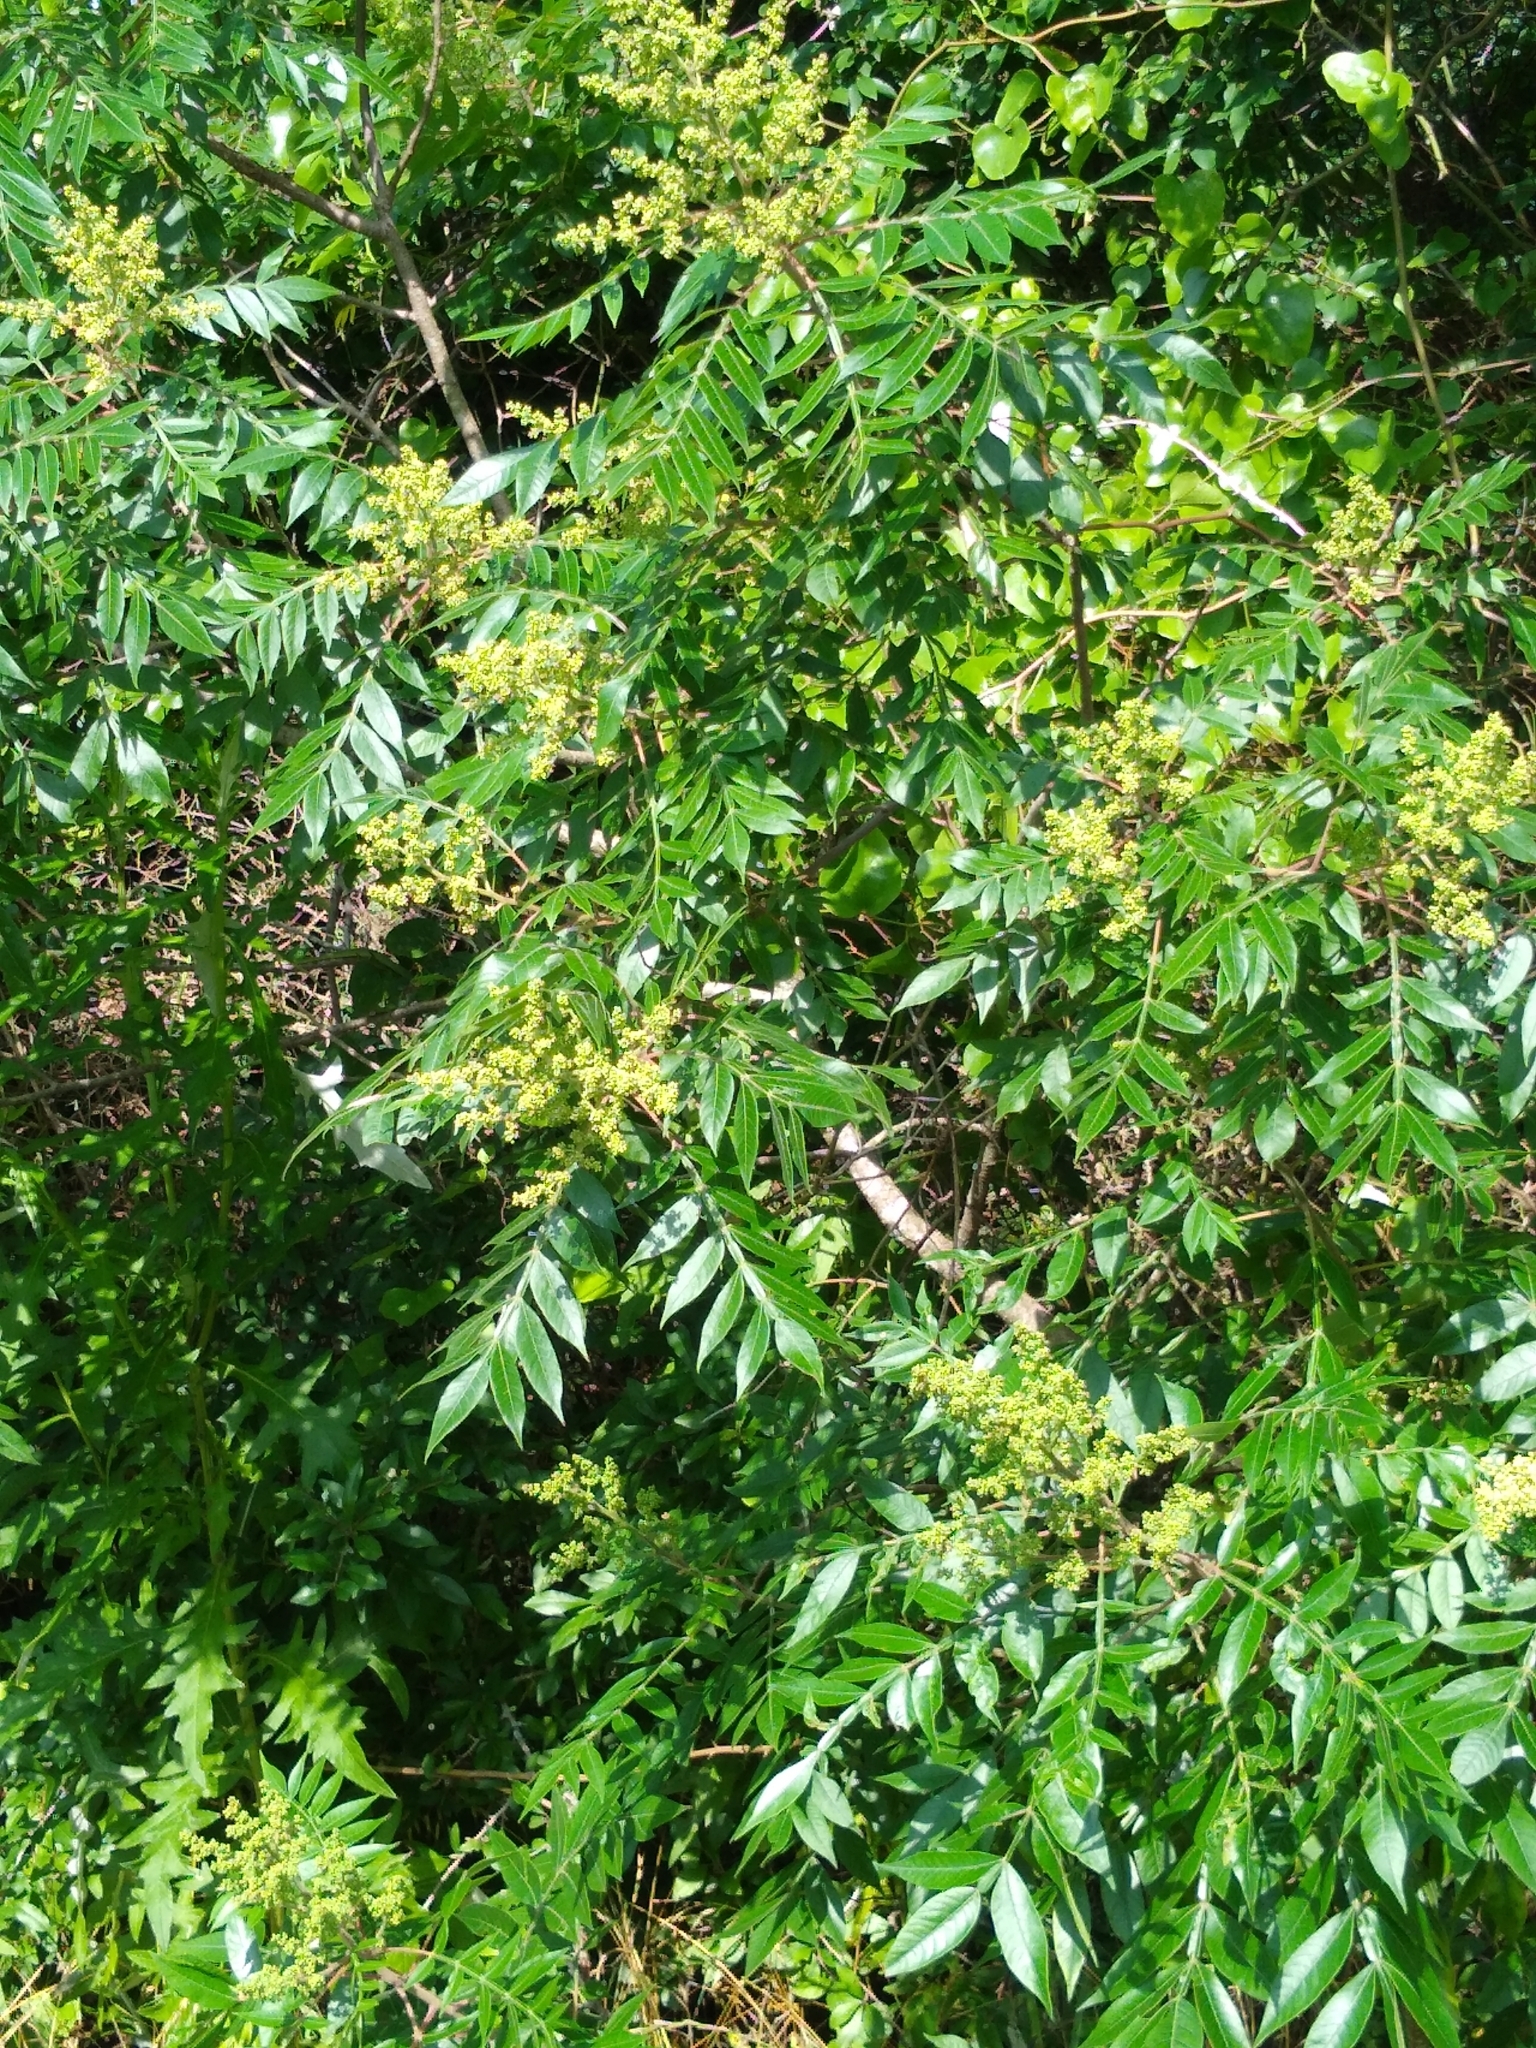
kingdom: Plantae
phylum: Tracheophyta
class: Magnoliopsida
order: Sapindales
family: Anacardiaceae
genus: Rhus
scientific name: Rhus copallina
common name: Shining sumac
